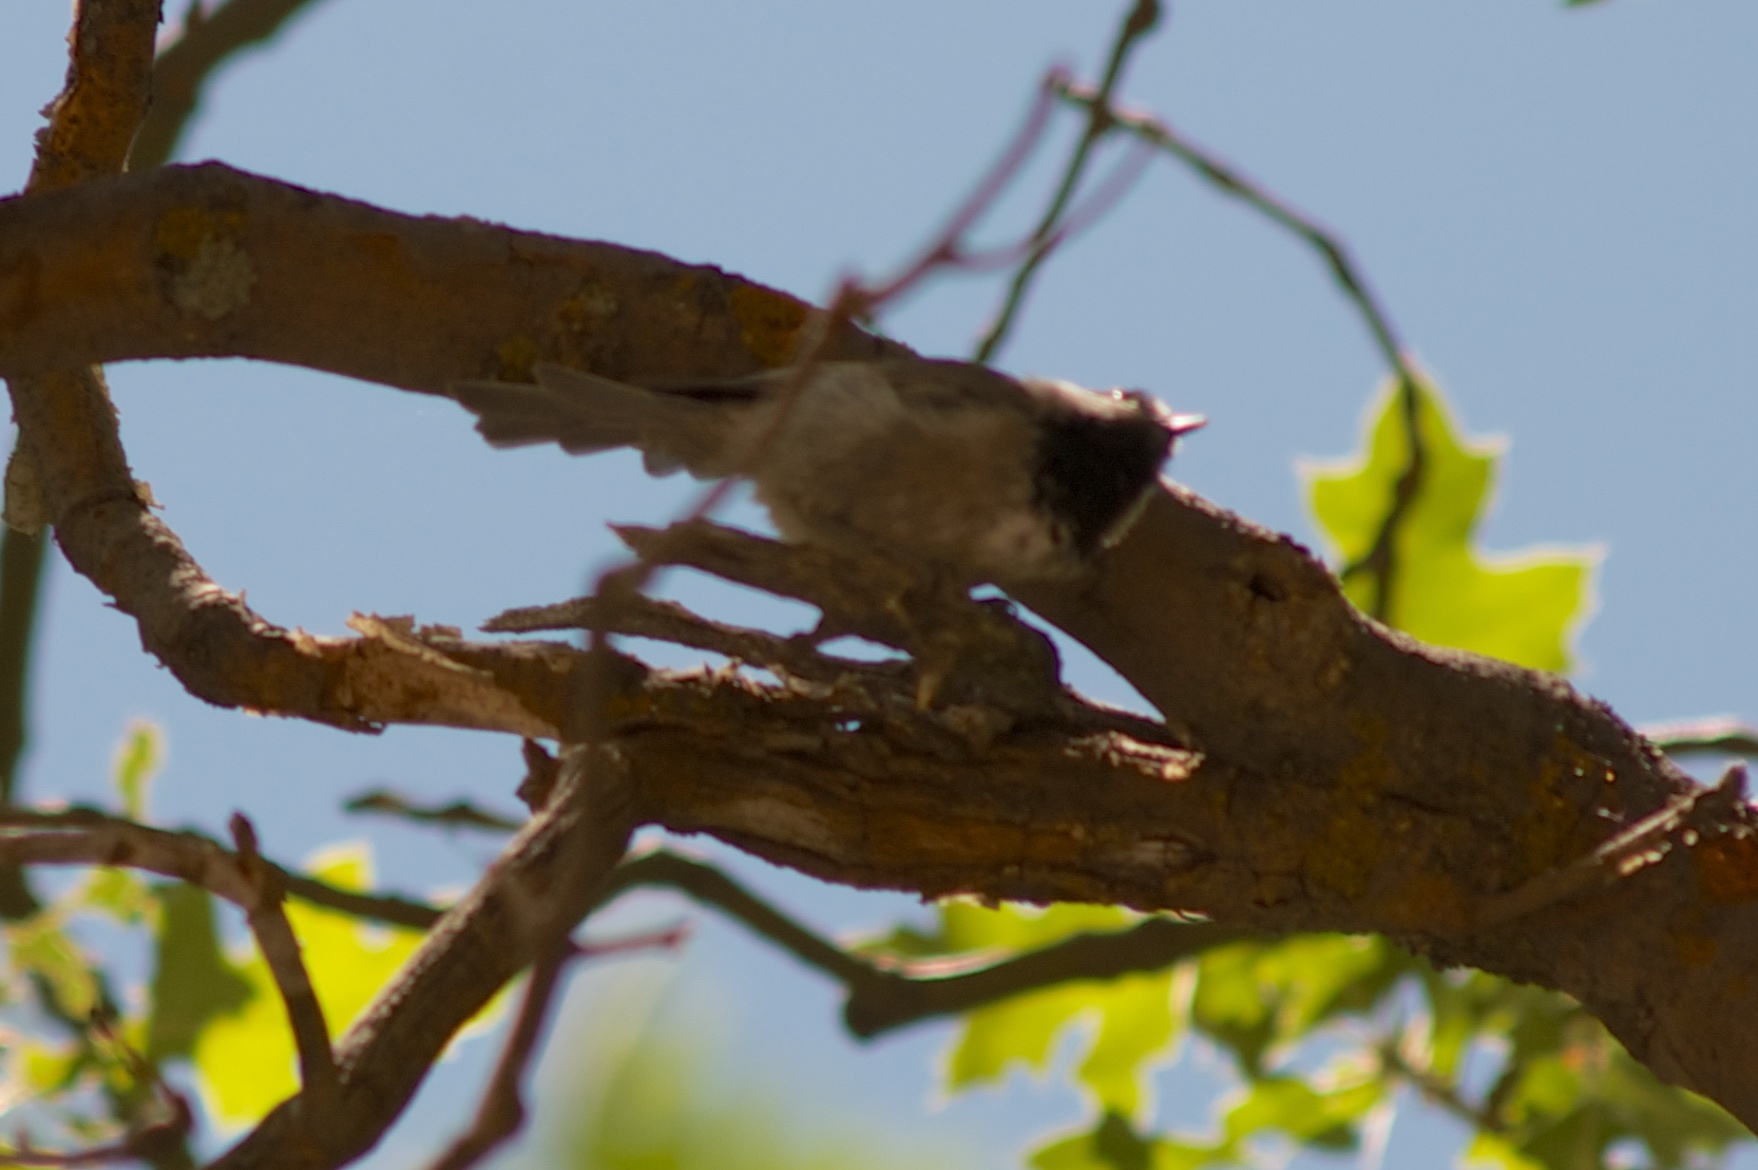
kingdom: Animalia
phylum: Chordata
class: Aves
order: Passeriformes
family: Paridae
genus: Poecile
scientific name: Poecile gambeli
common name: Mountain chickadee
